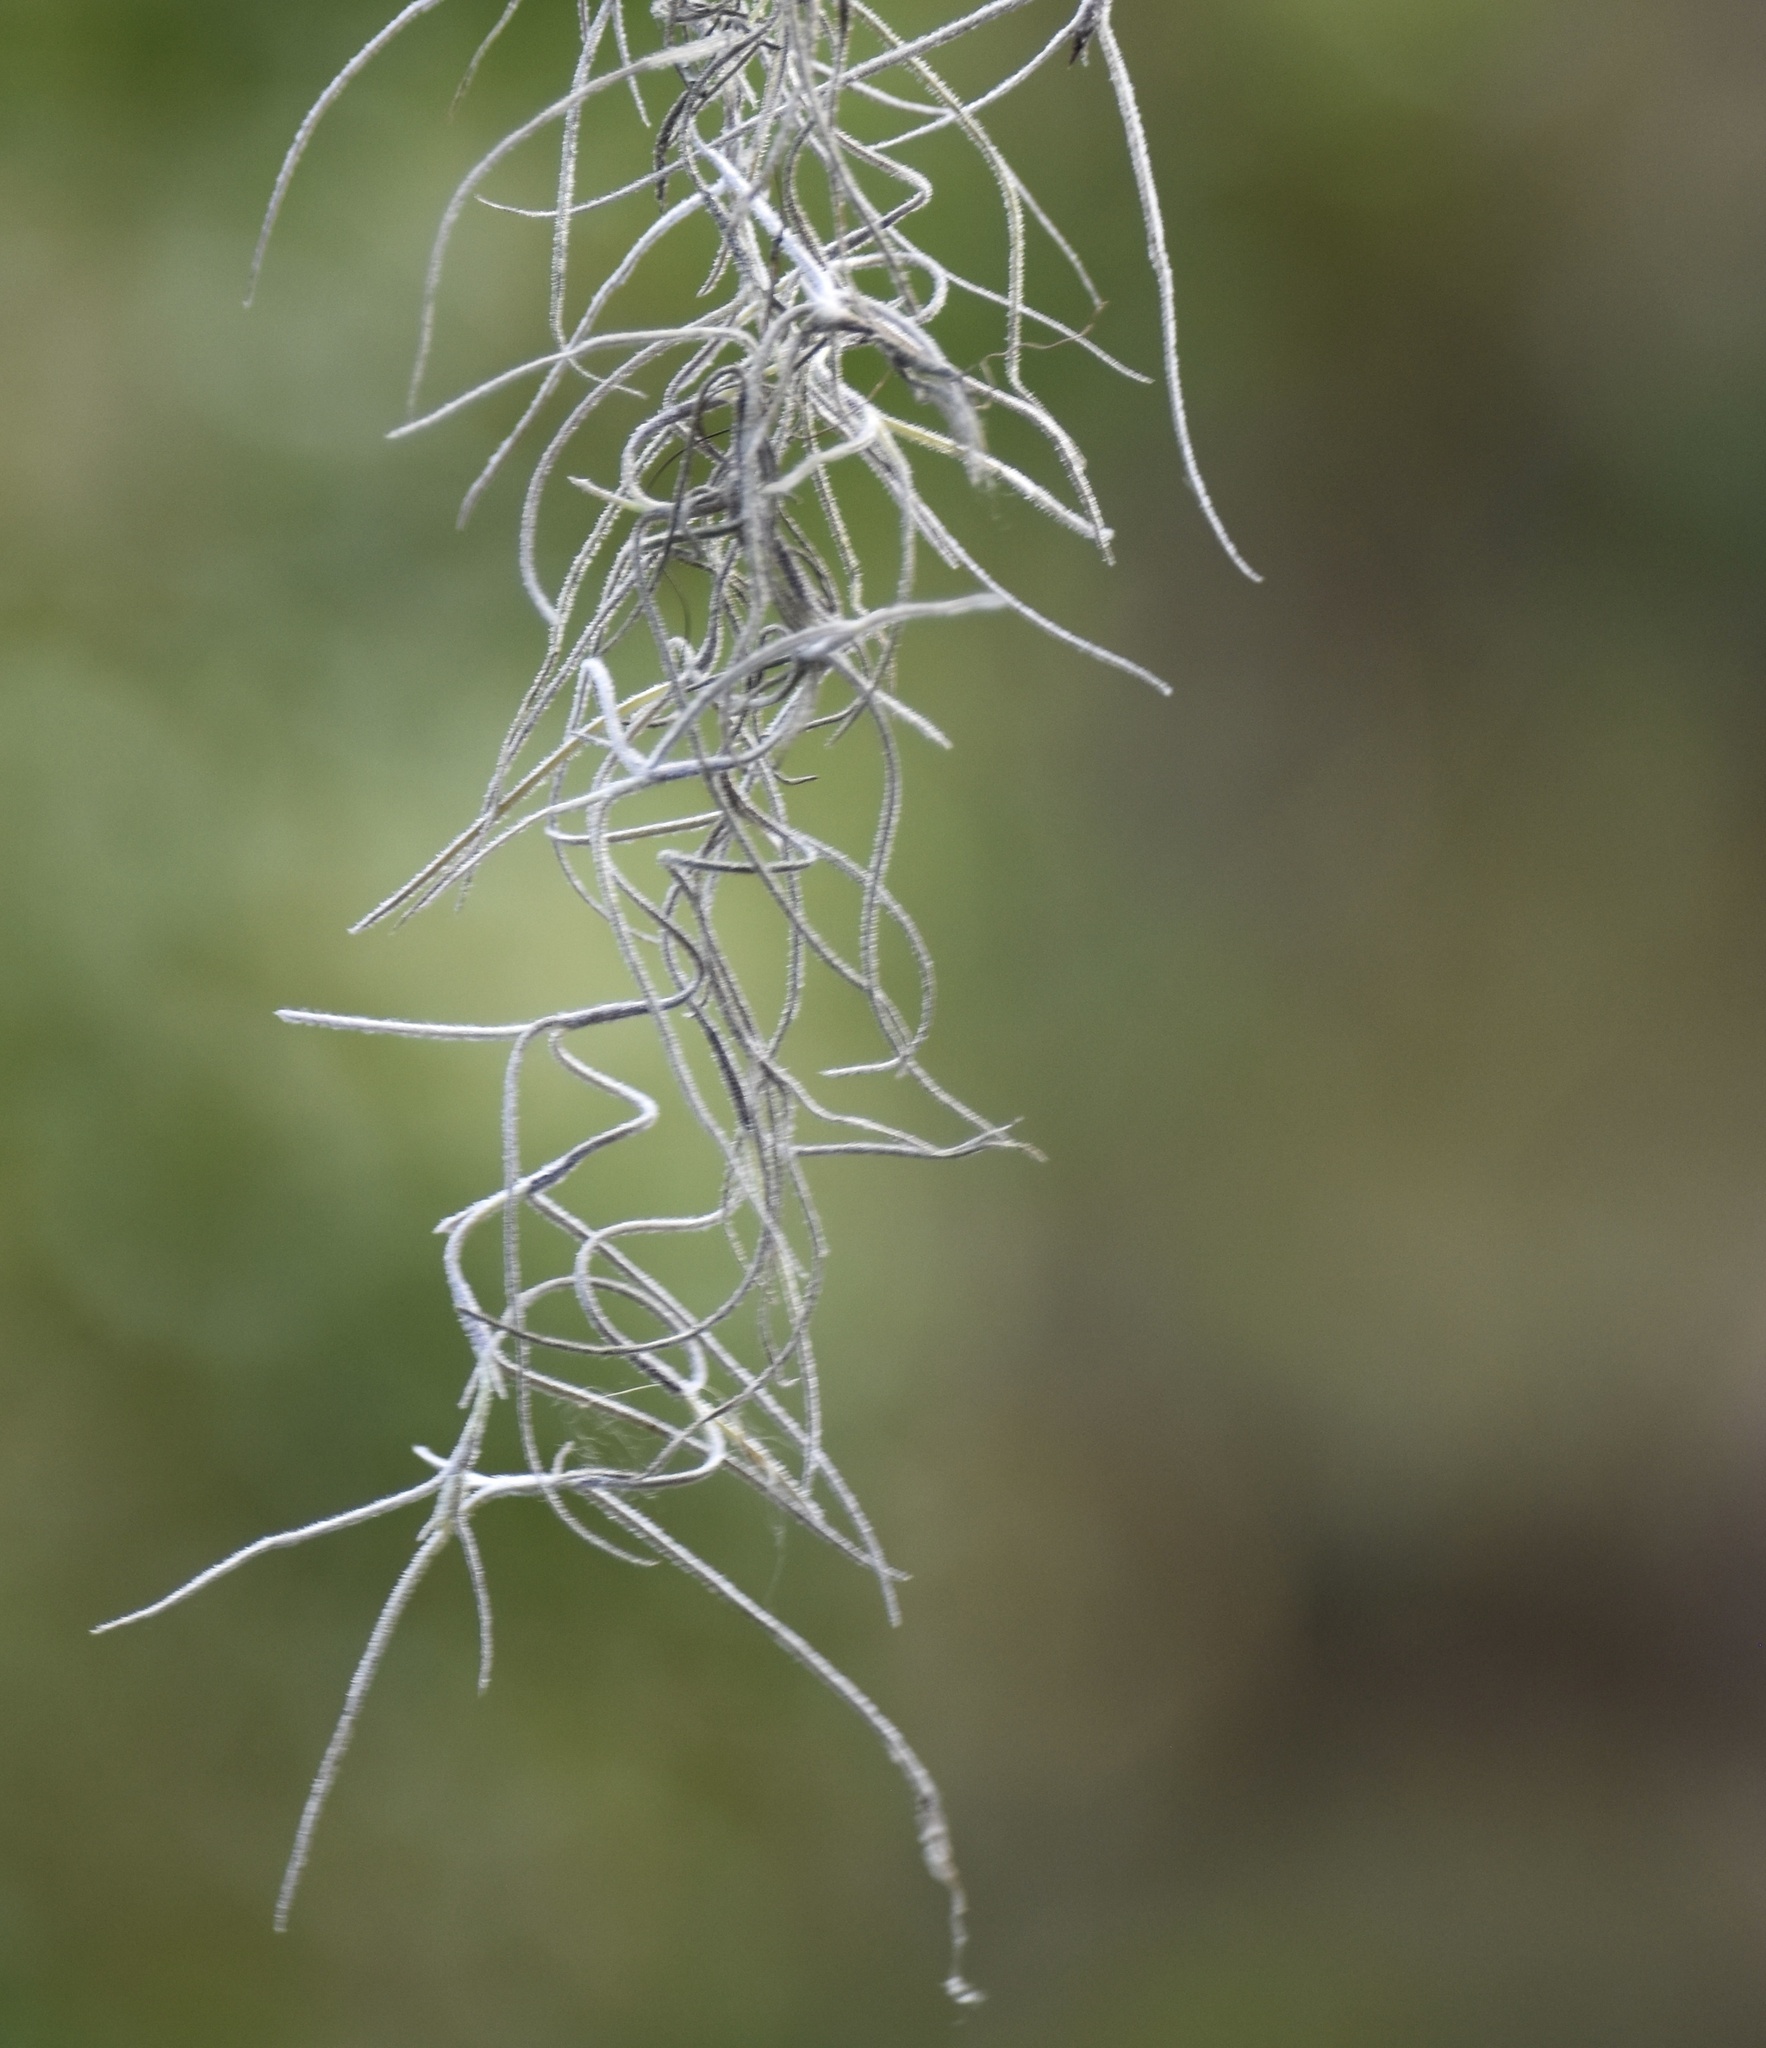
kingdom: Plantae
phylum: Tracheophyta
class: Liliopsida
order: Poales
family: Bromeliaceae
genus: Tillandsia
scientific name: Tillandsia usneoides
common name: Spanish moss
